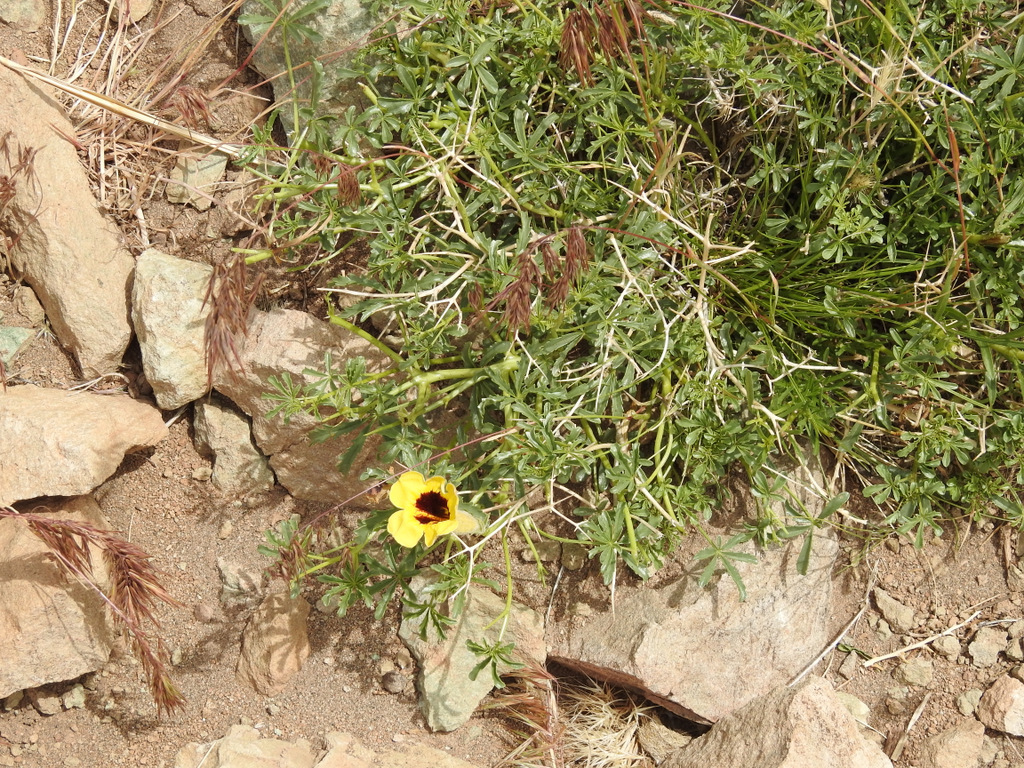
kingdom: Plantae
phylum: Tracheophyta
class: Magnoliopsida
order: Lamiales
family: Bignoniaceae
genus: Argylia
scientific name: Argylia bustillosii
